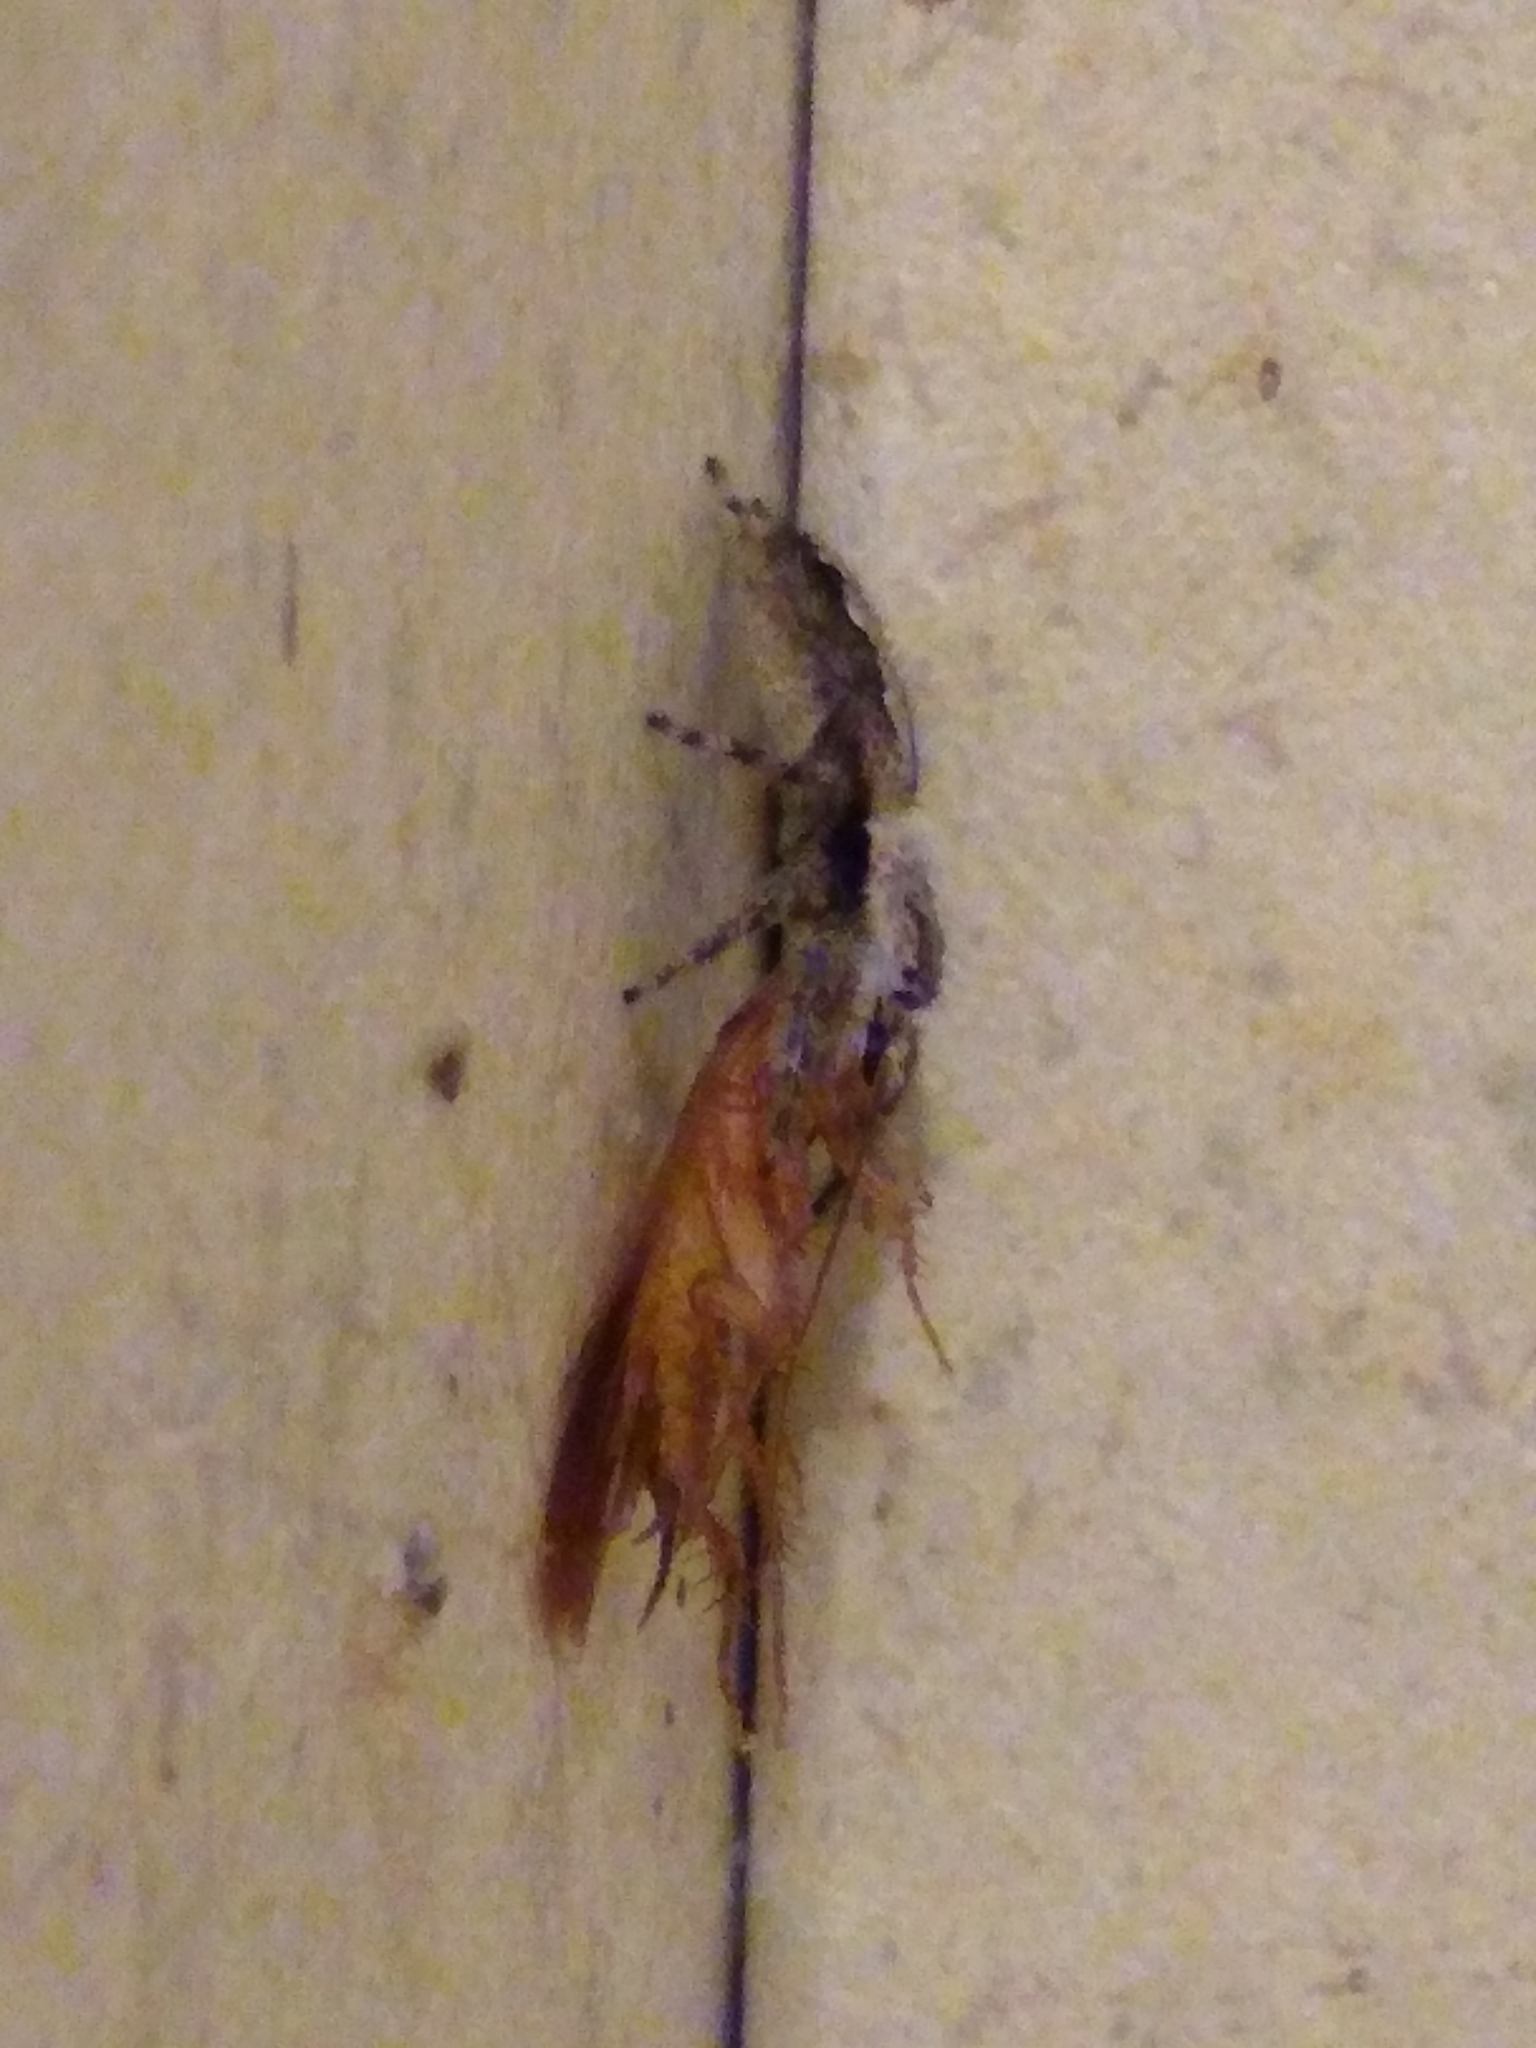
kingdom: Animalia
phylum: Arthropoda
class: Arachnida
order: Araneae
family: Salticidae
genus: Platycryptus
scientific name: Platycryptus undatus
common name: Tan jumping spider
